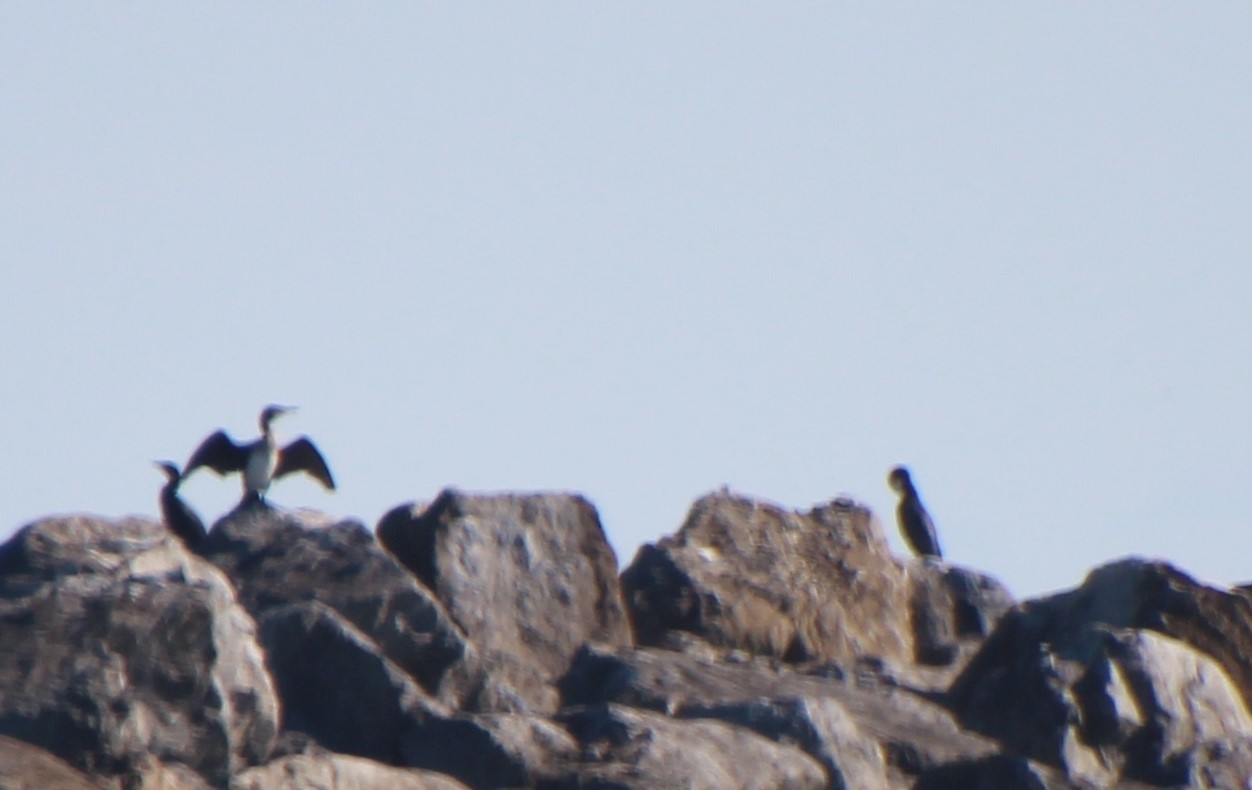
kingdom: Animalia
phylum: Chordata
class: Aves
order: Suliformes
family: Phalacrocoracidae
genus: Phalacrocorax
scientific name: Phalacrocorax carbo
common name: Great cormorant
